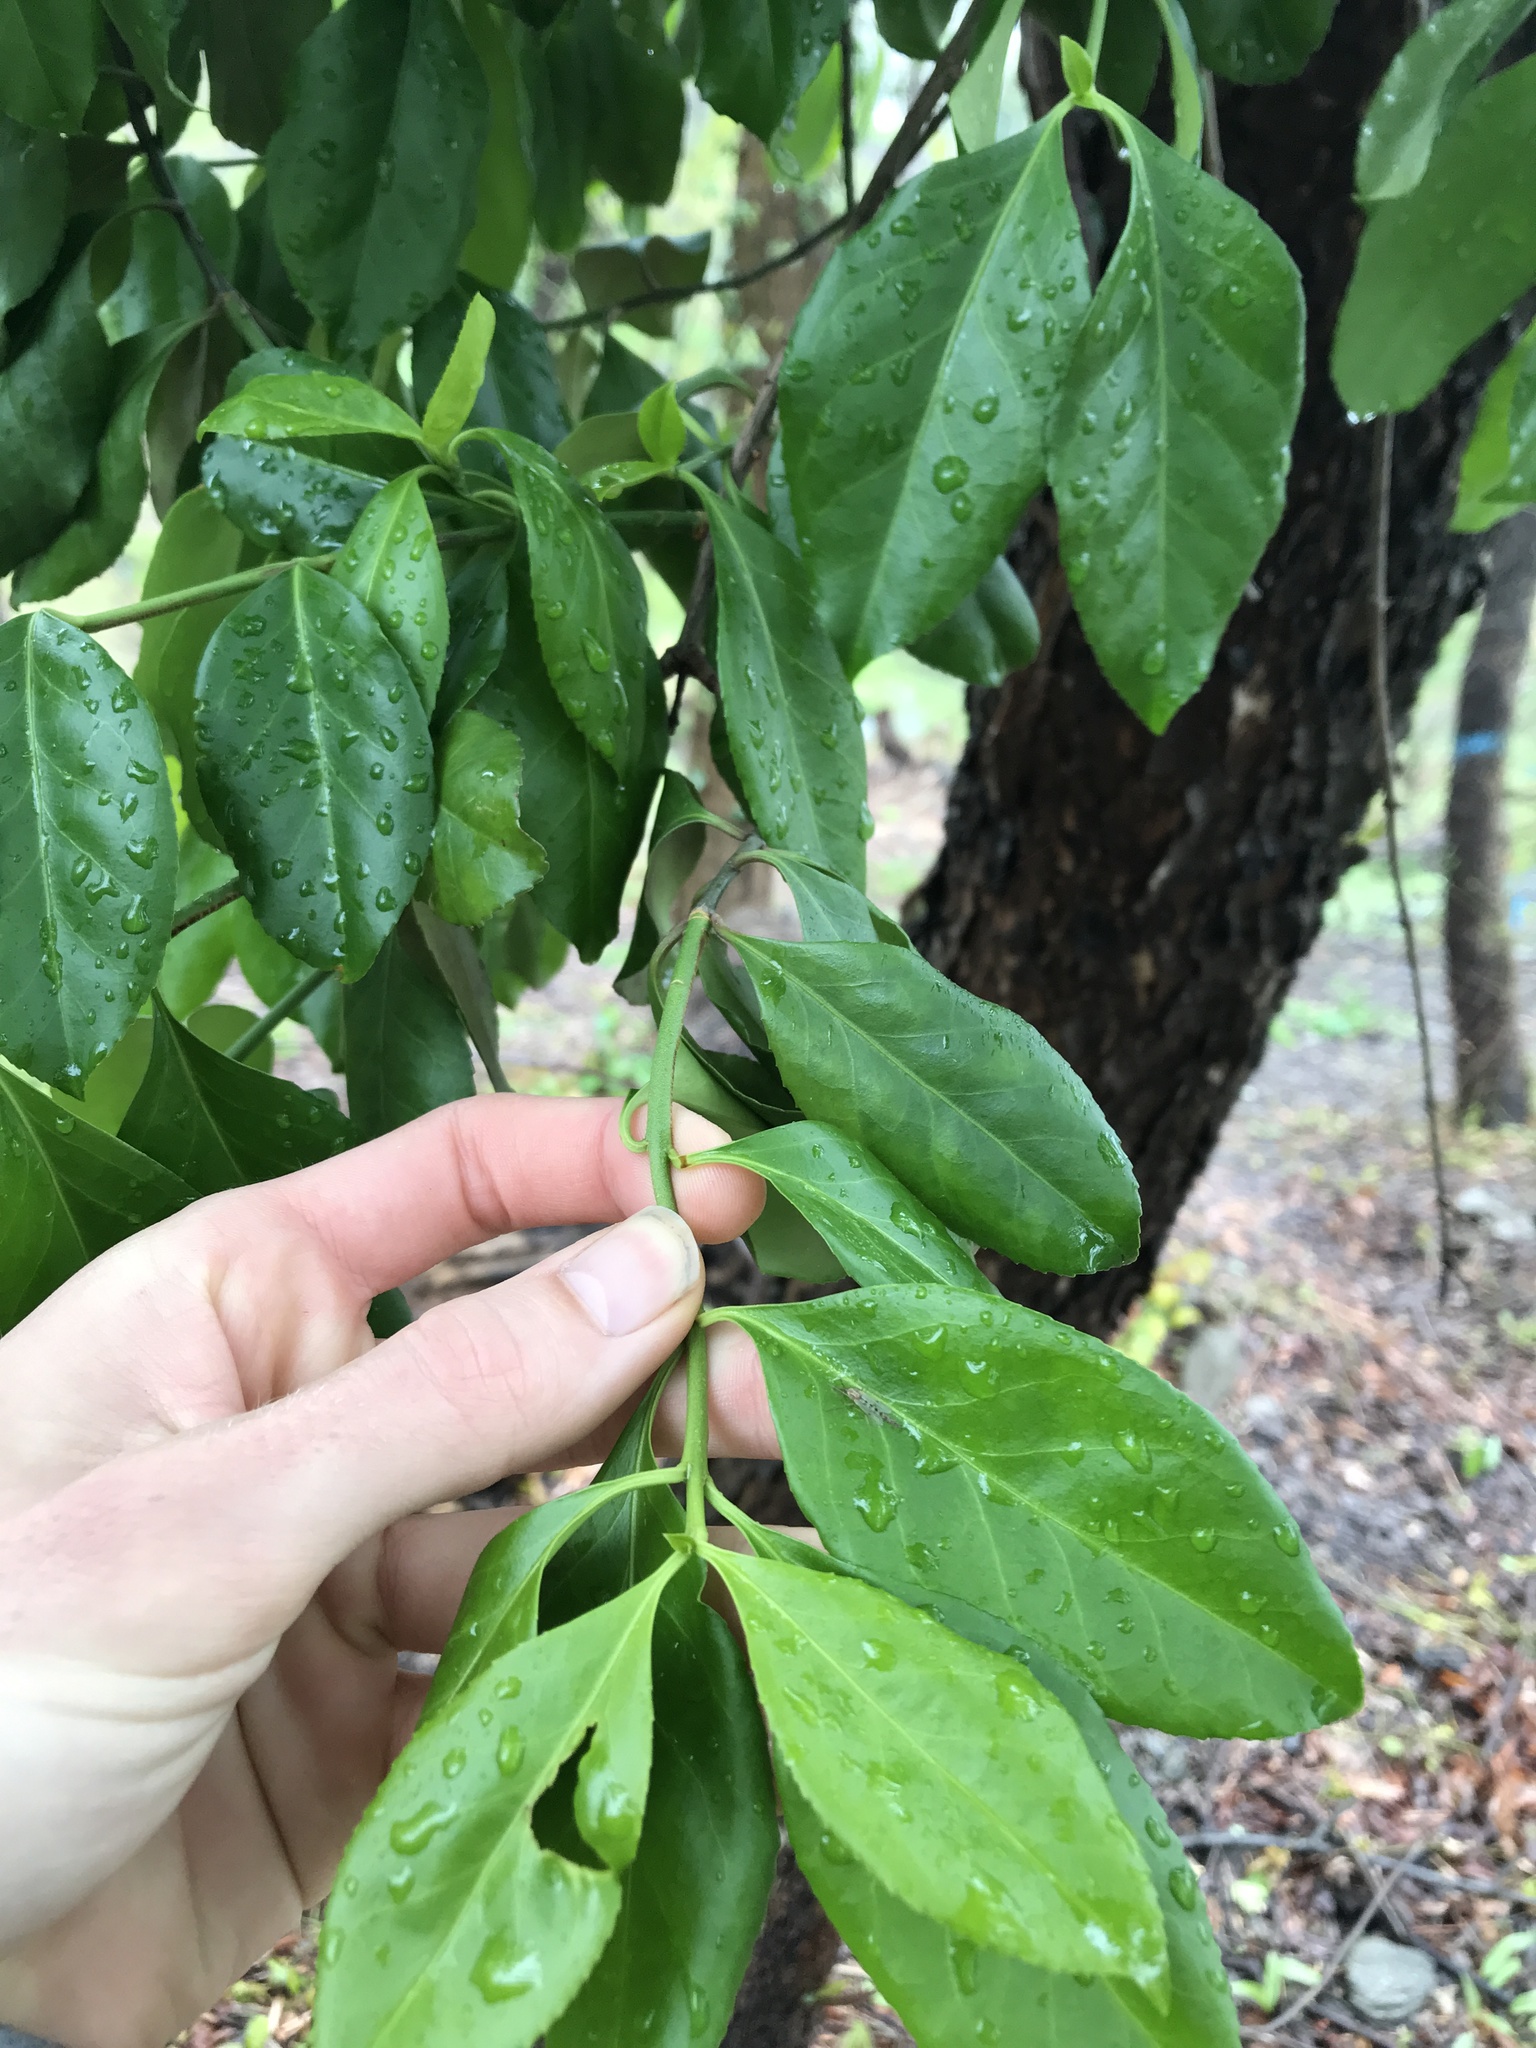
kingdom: Plantae
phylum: Tracheophyta
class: Magnoliopsida
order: Celastrales
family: Celastraceae
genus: Euonymus
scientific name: Euonymus fortunei
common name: Climbing euonymus
